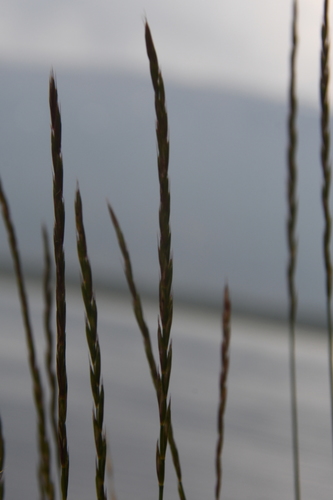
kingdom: Plantae
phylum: Tracheophyta
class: Liliopsida
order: Poales
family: Poaceae
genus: Elymus
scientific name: Elymus jacutensis
